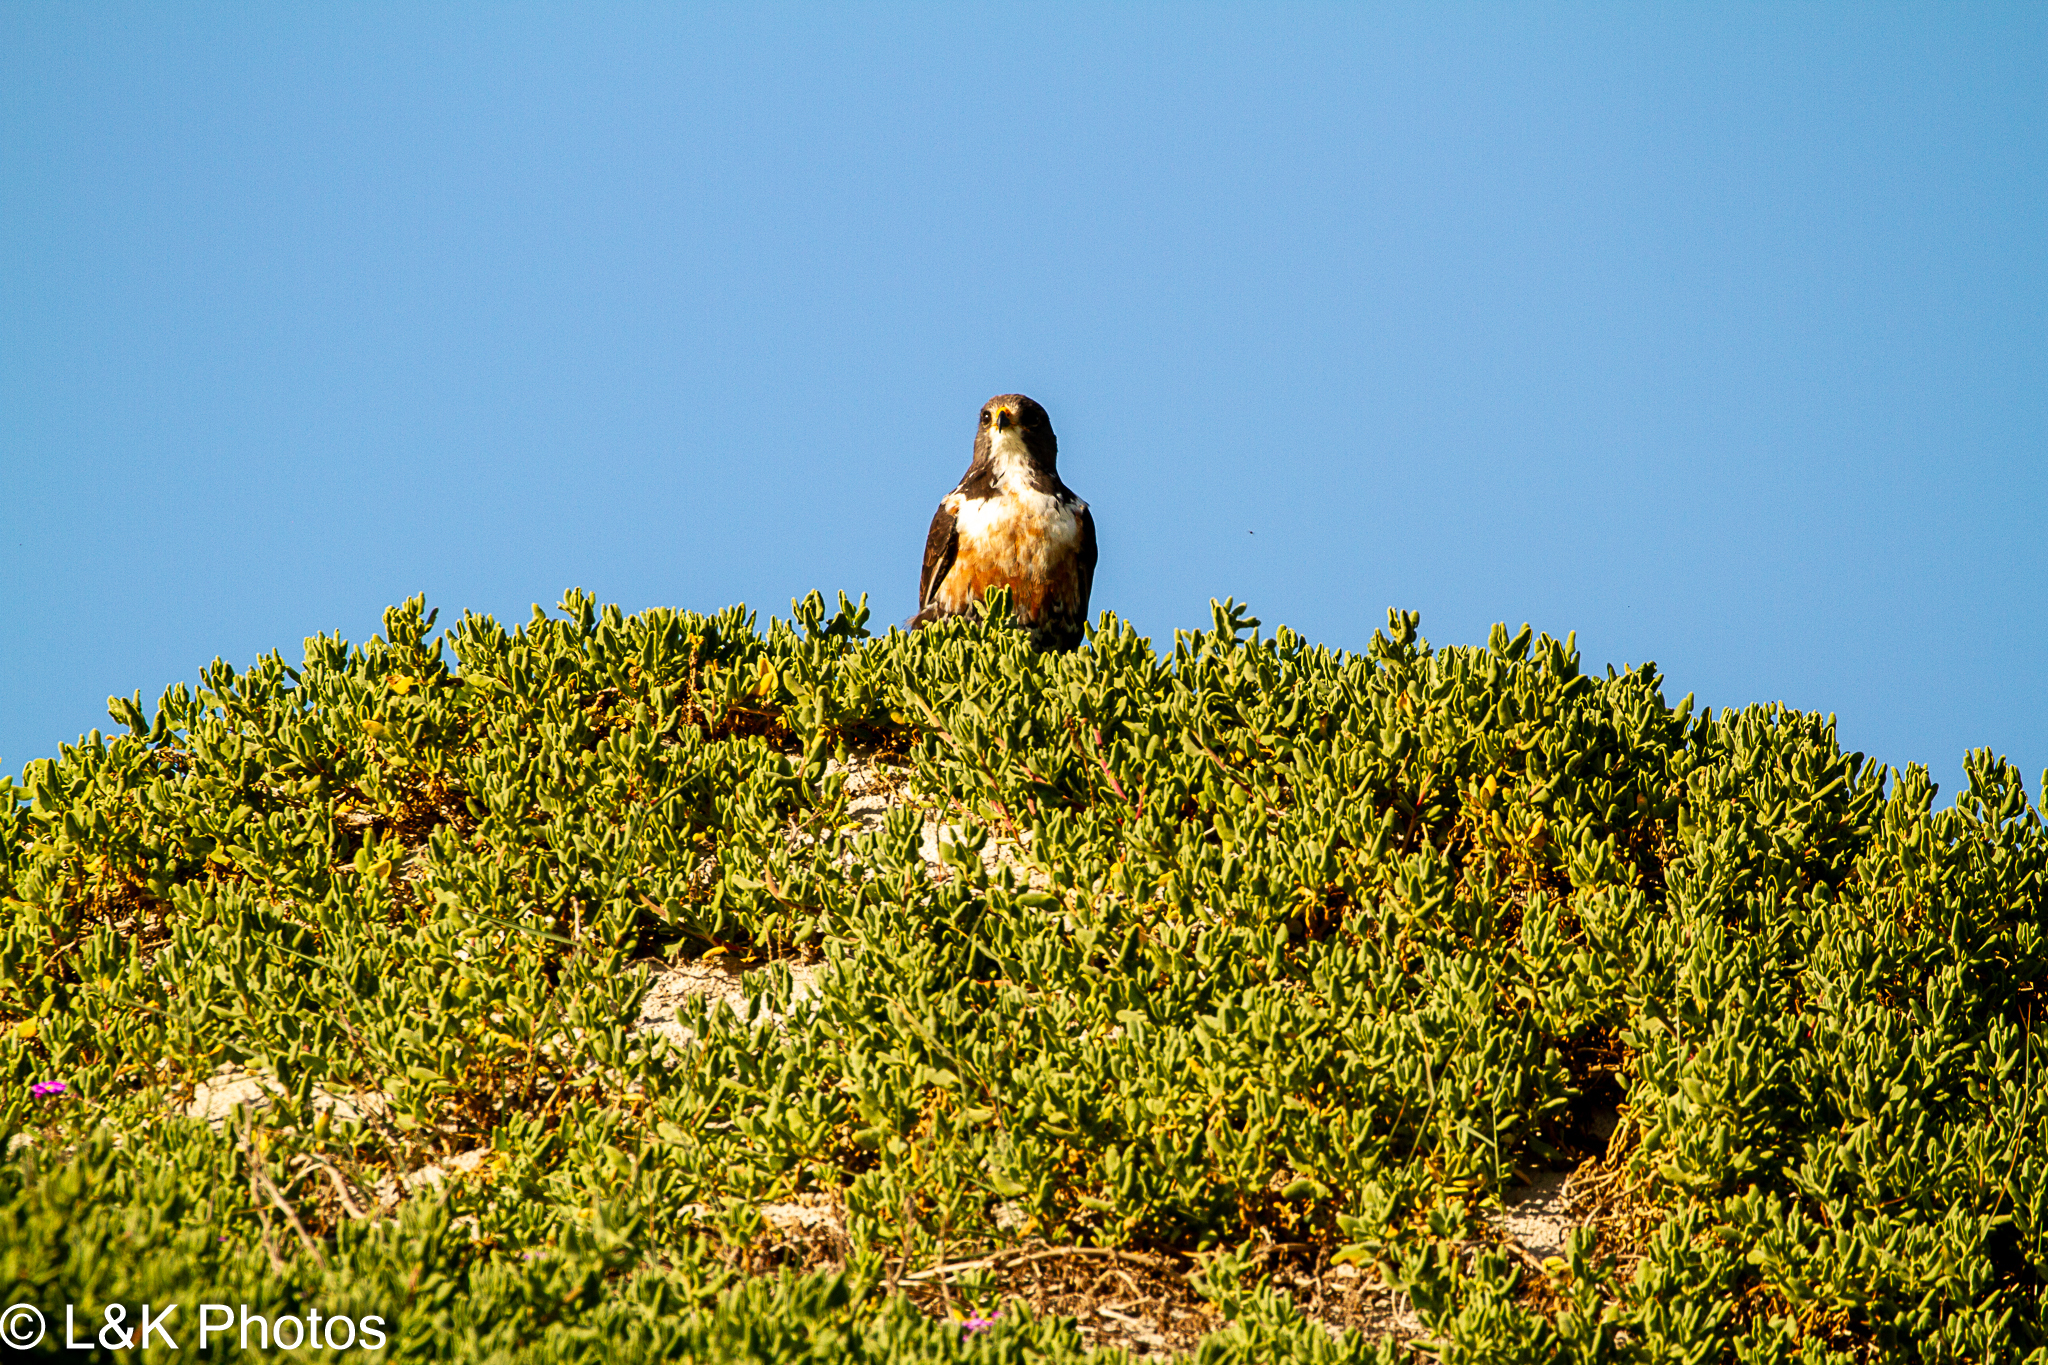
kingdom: Animalia
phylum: Chordata
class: Aves
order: Accipitriformes
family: Accipitridae
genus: Buteo
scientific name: Buteo rufofuscus
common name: Jackal buzzard
